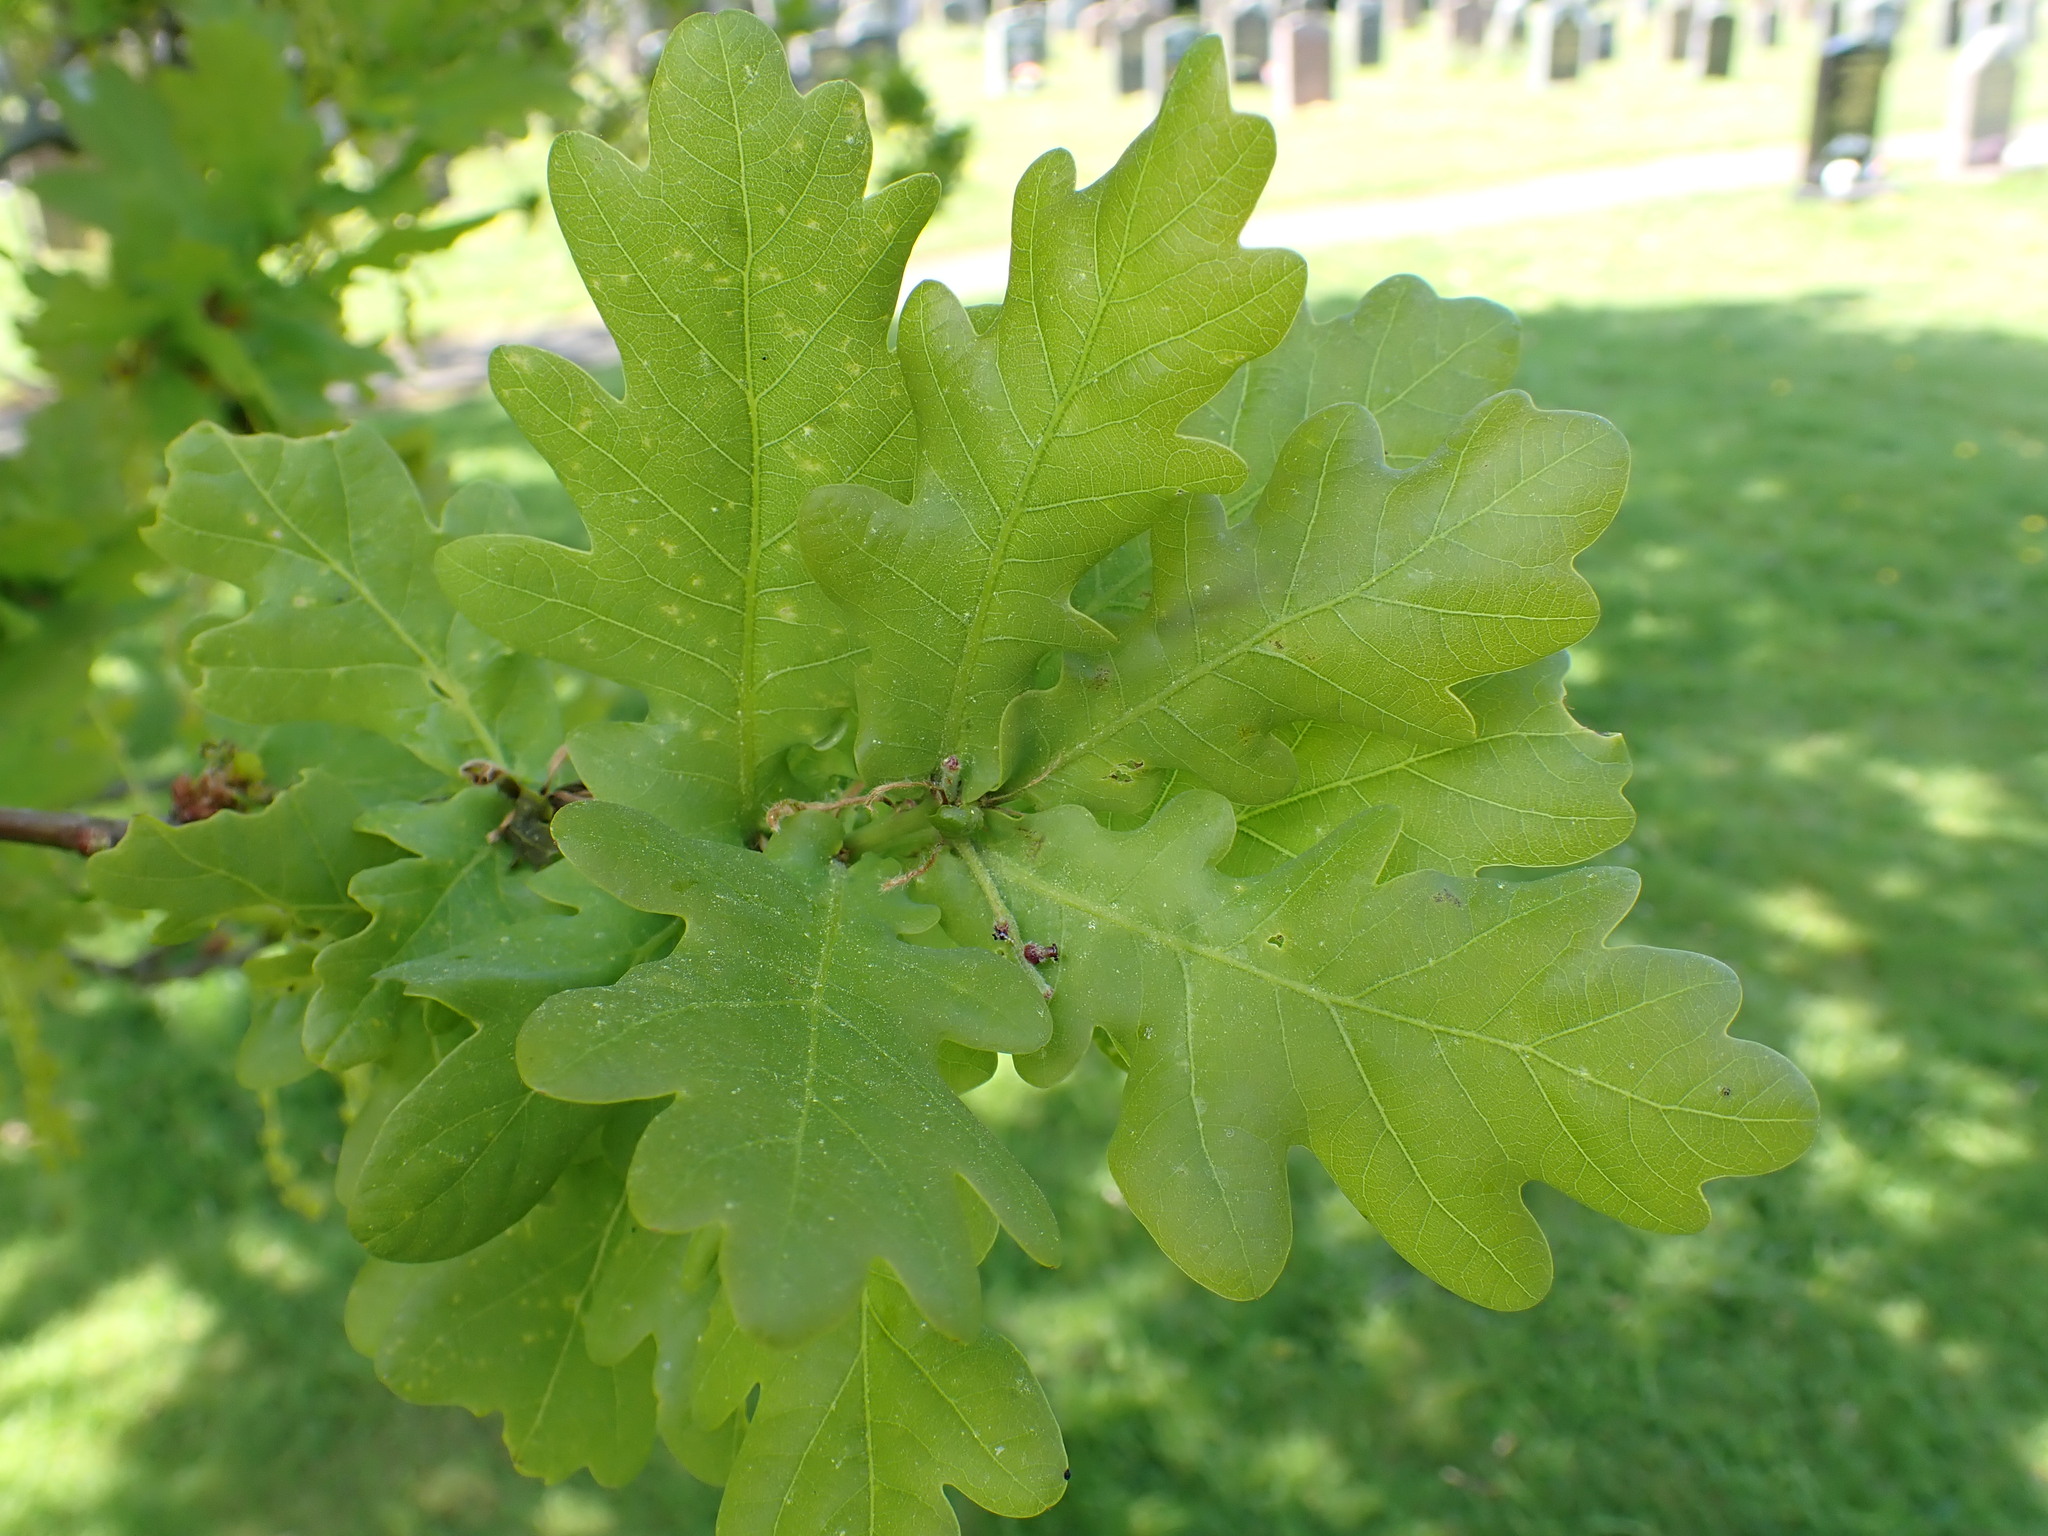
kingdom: Plantae
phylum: Tracheophyta
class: Magnoliopsida
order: Fagales
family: Fagaceae
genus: Quercus
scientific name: Quercus robur
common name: Pedunculate oak
